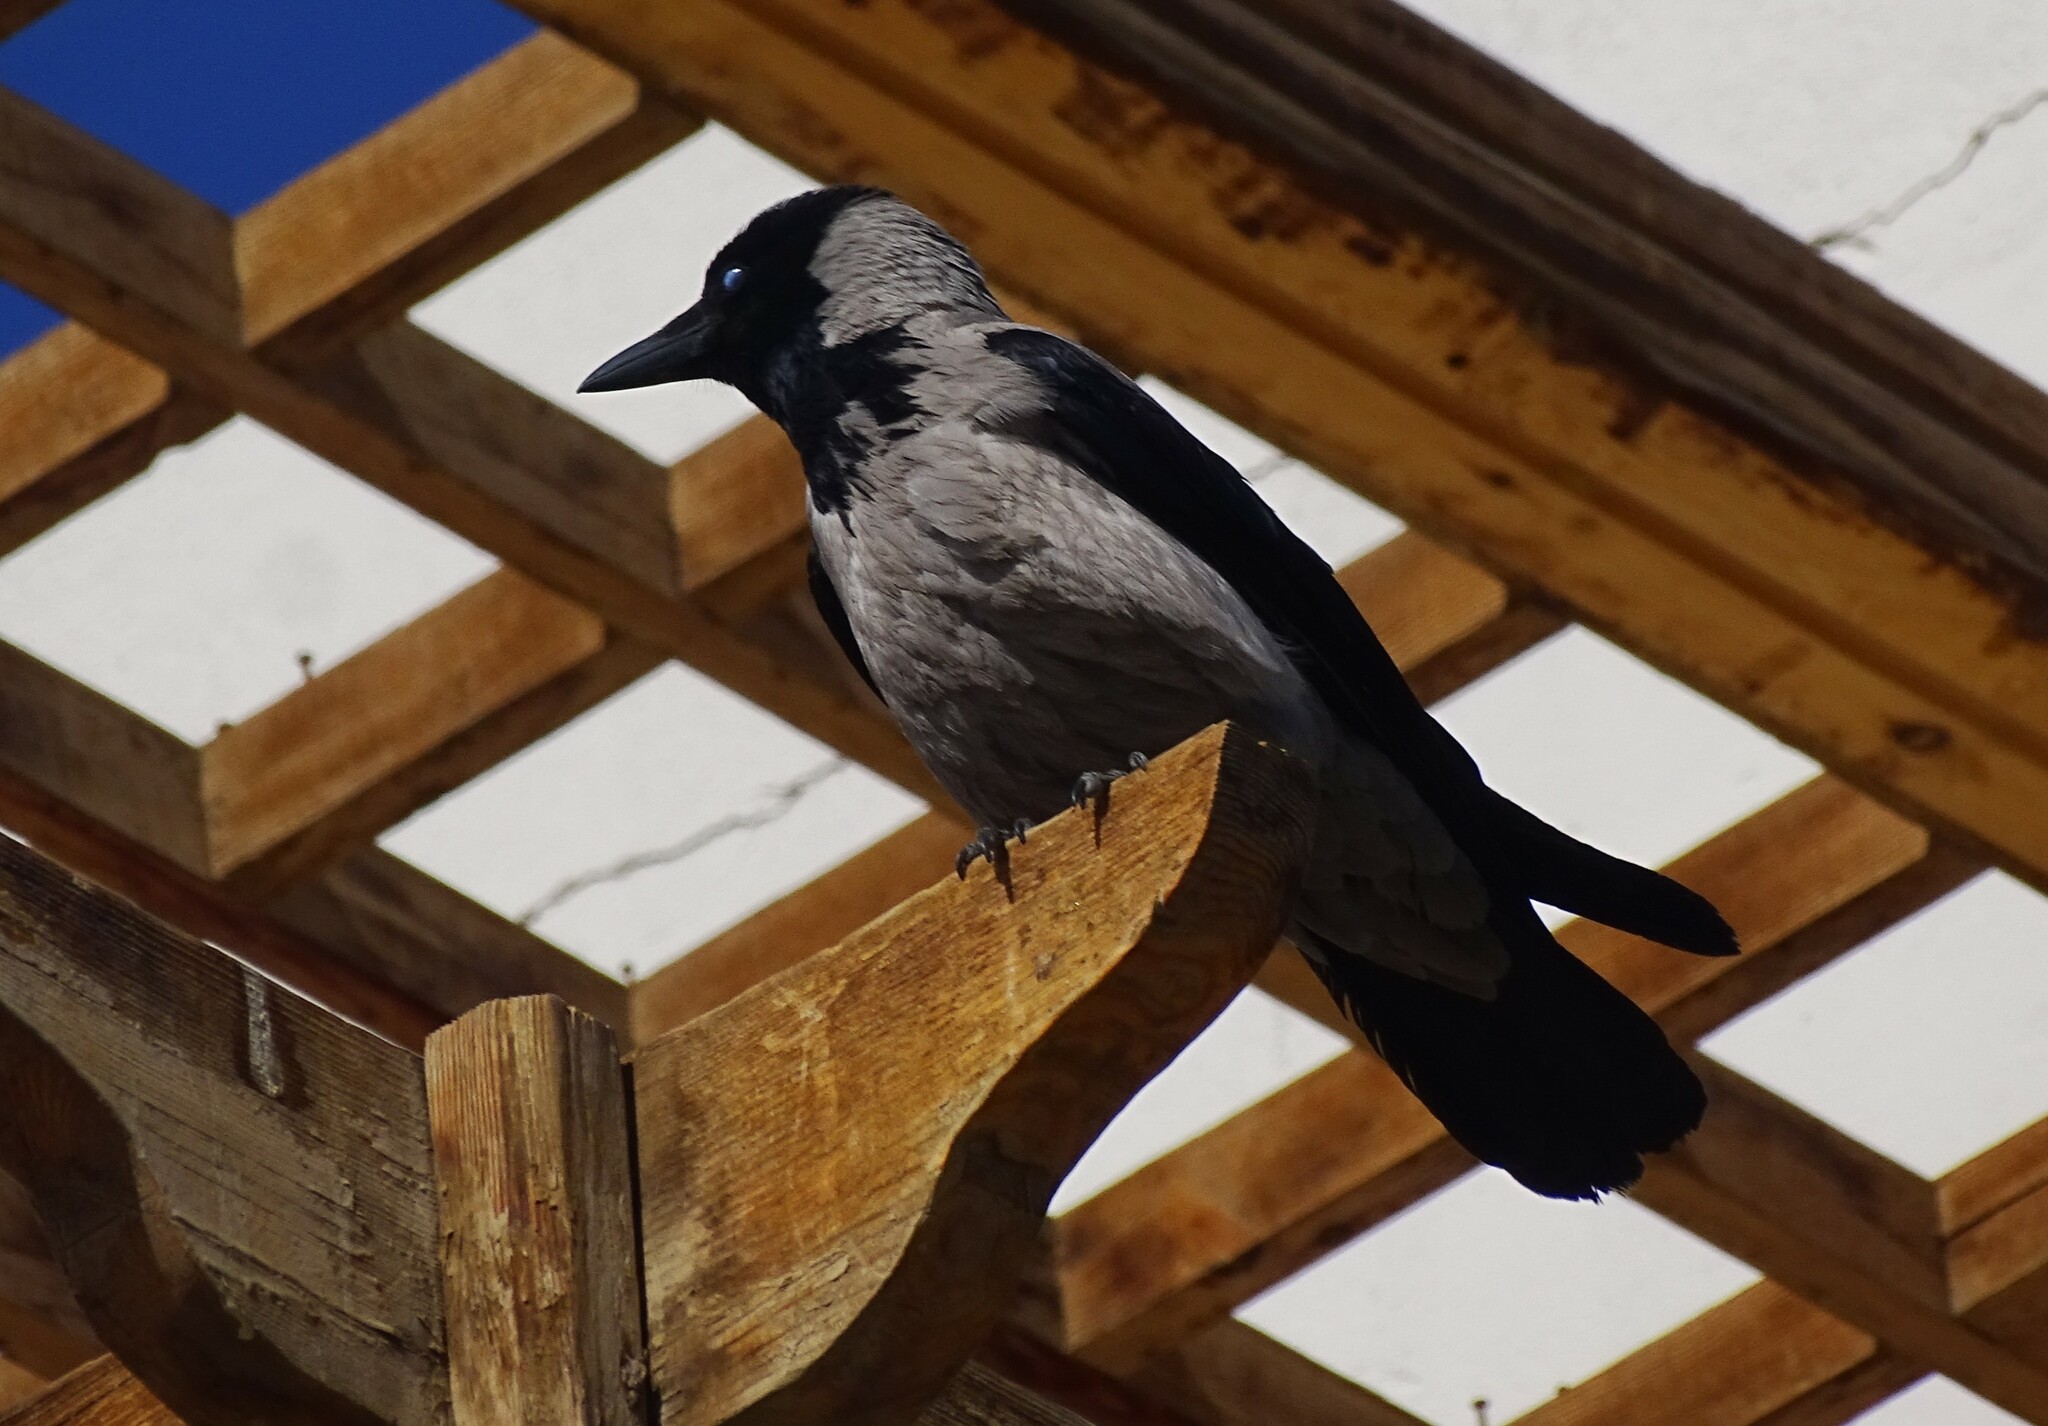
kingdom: Animalia
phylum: Chordata
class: Aves
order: Passeriformes
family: Corvidae
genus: Corvus
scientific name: Corvus cornix
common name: Hooded crow
